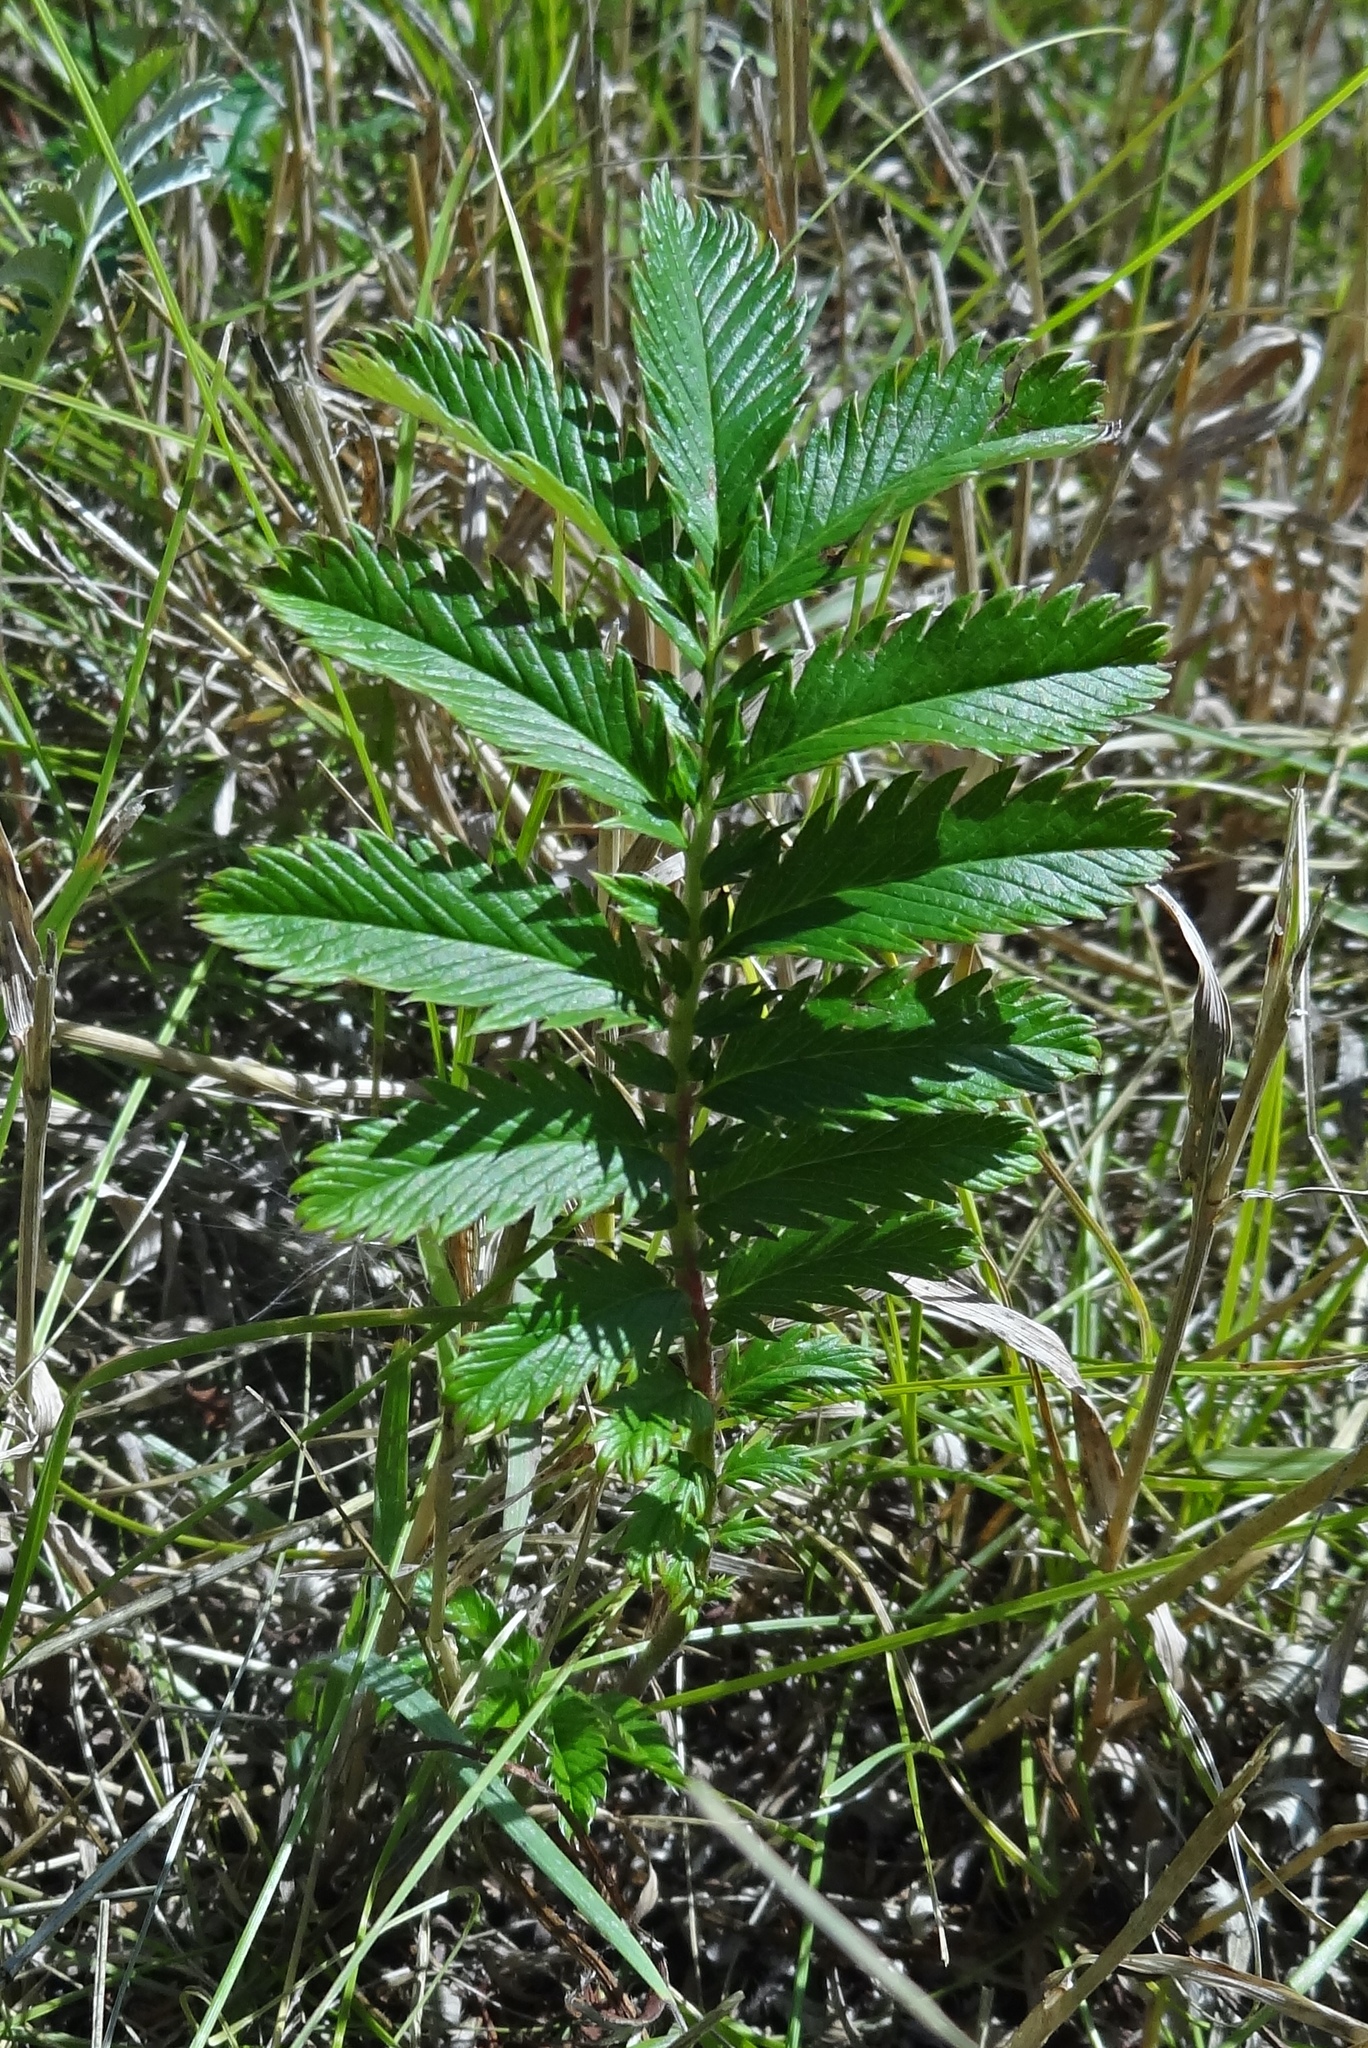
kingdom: Plantae
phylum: Tracheophyta
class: Magnoliopsida
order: Rosales
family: Rosaceae
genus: Argentina
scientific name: Argentina anserina
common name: Common silverweed
